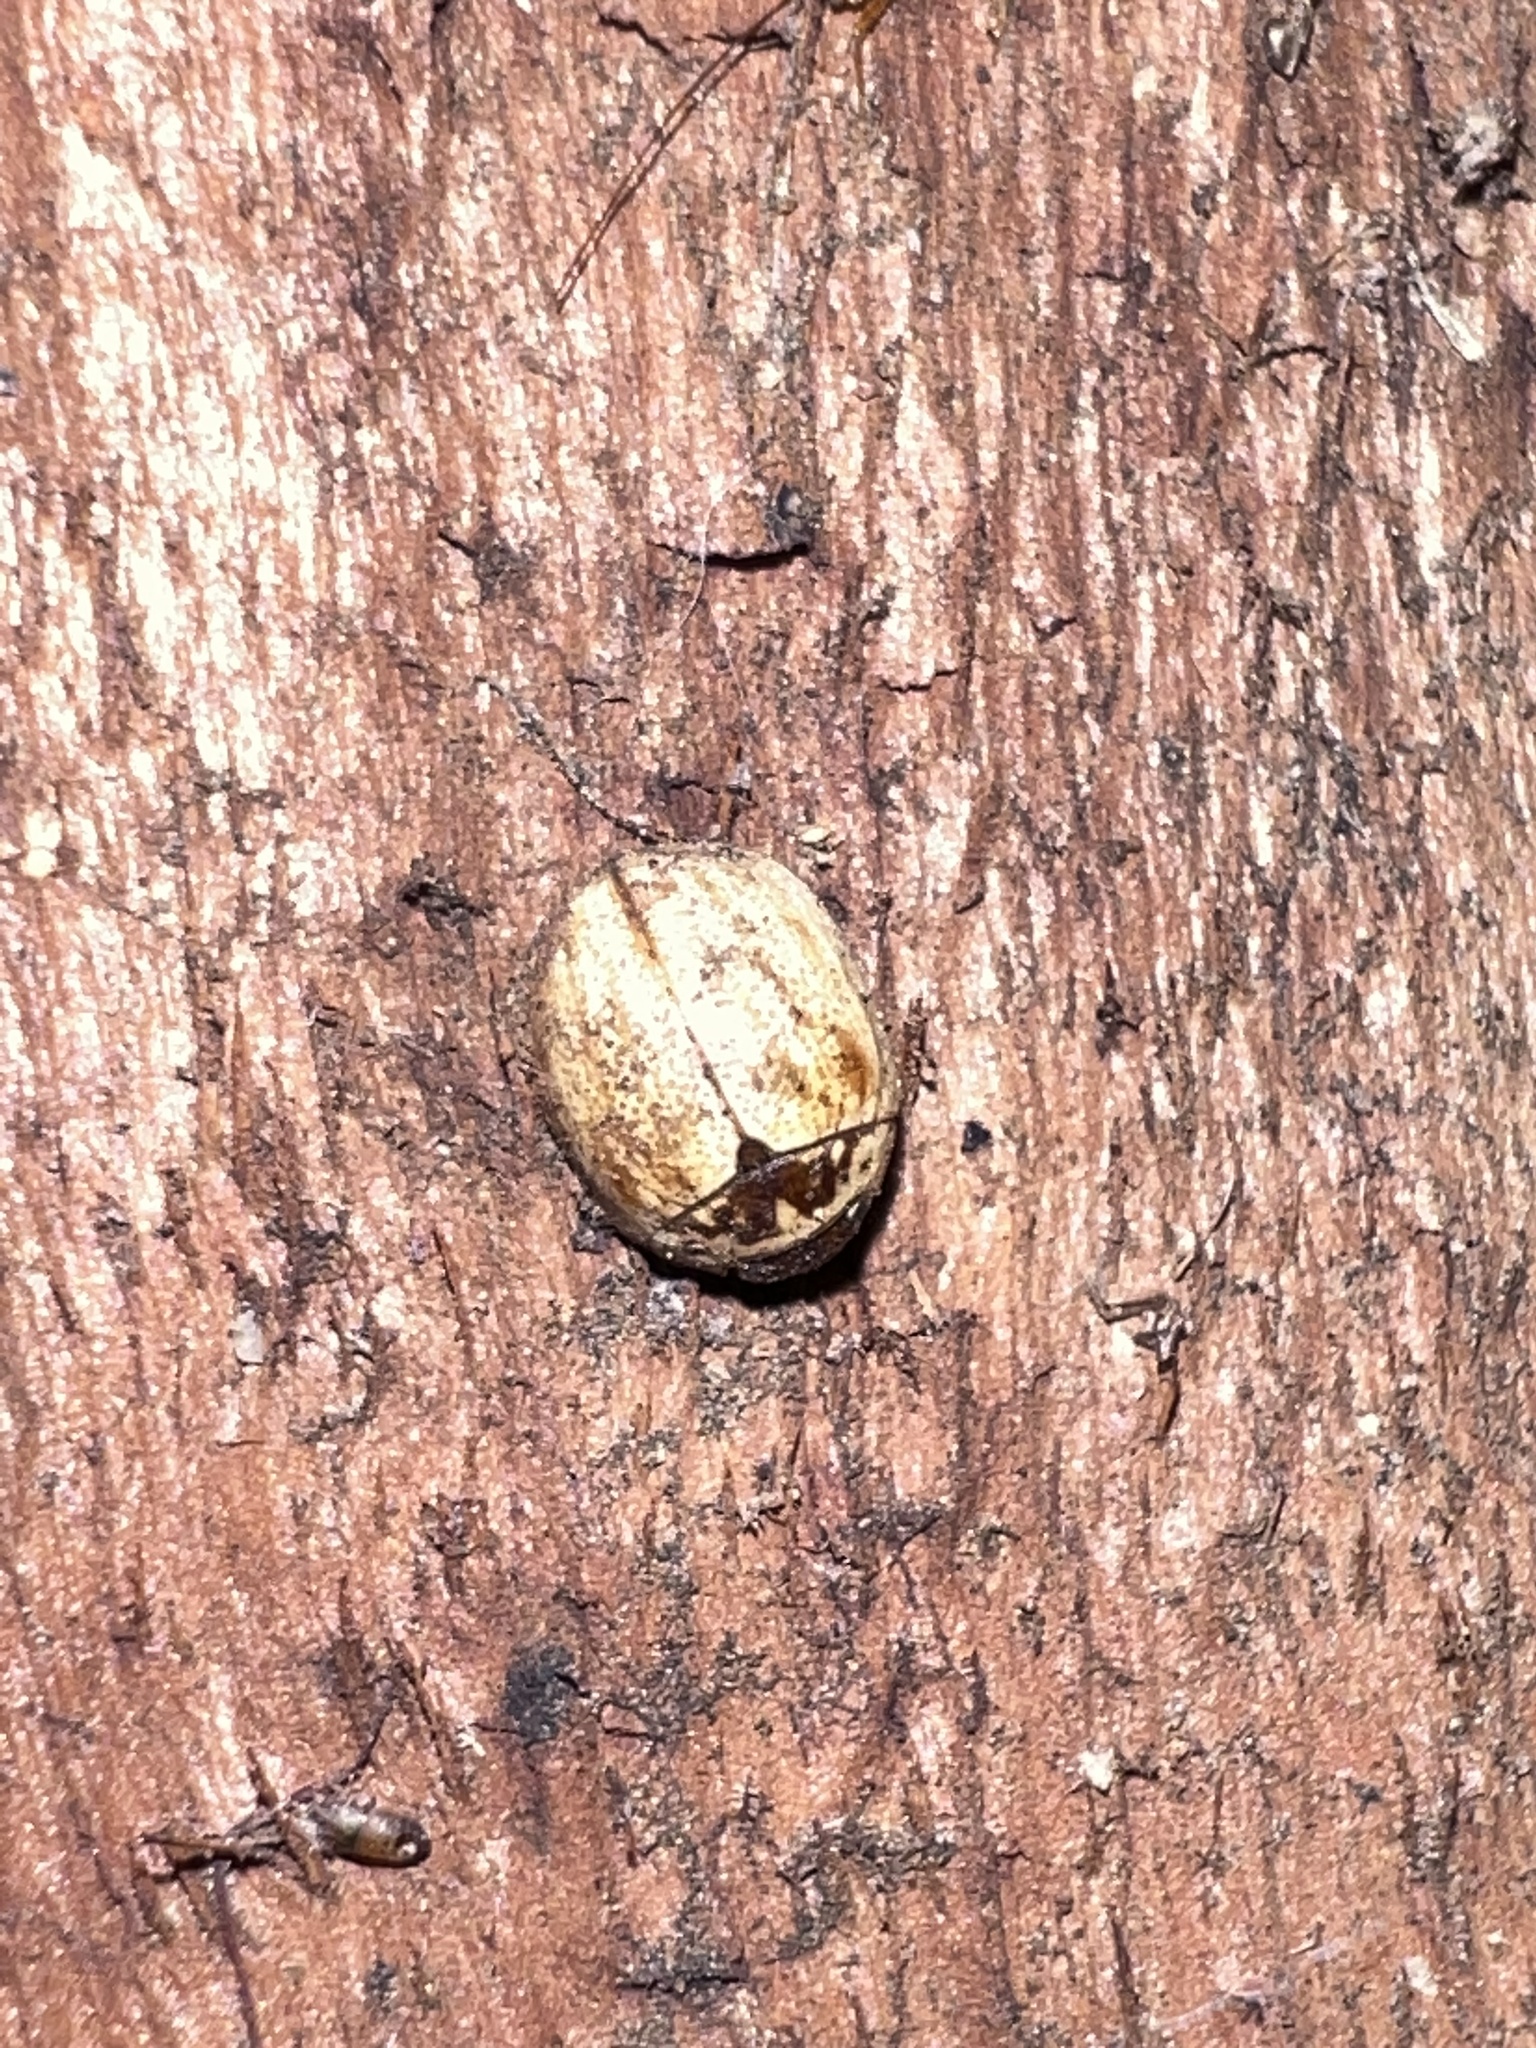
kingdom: Animalia
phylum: Arthropoda
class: Insecta
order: Coleoptera
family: Chrysomelidae
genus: Paropsisterna
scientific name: Paropsisterna m-fuscum
